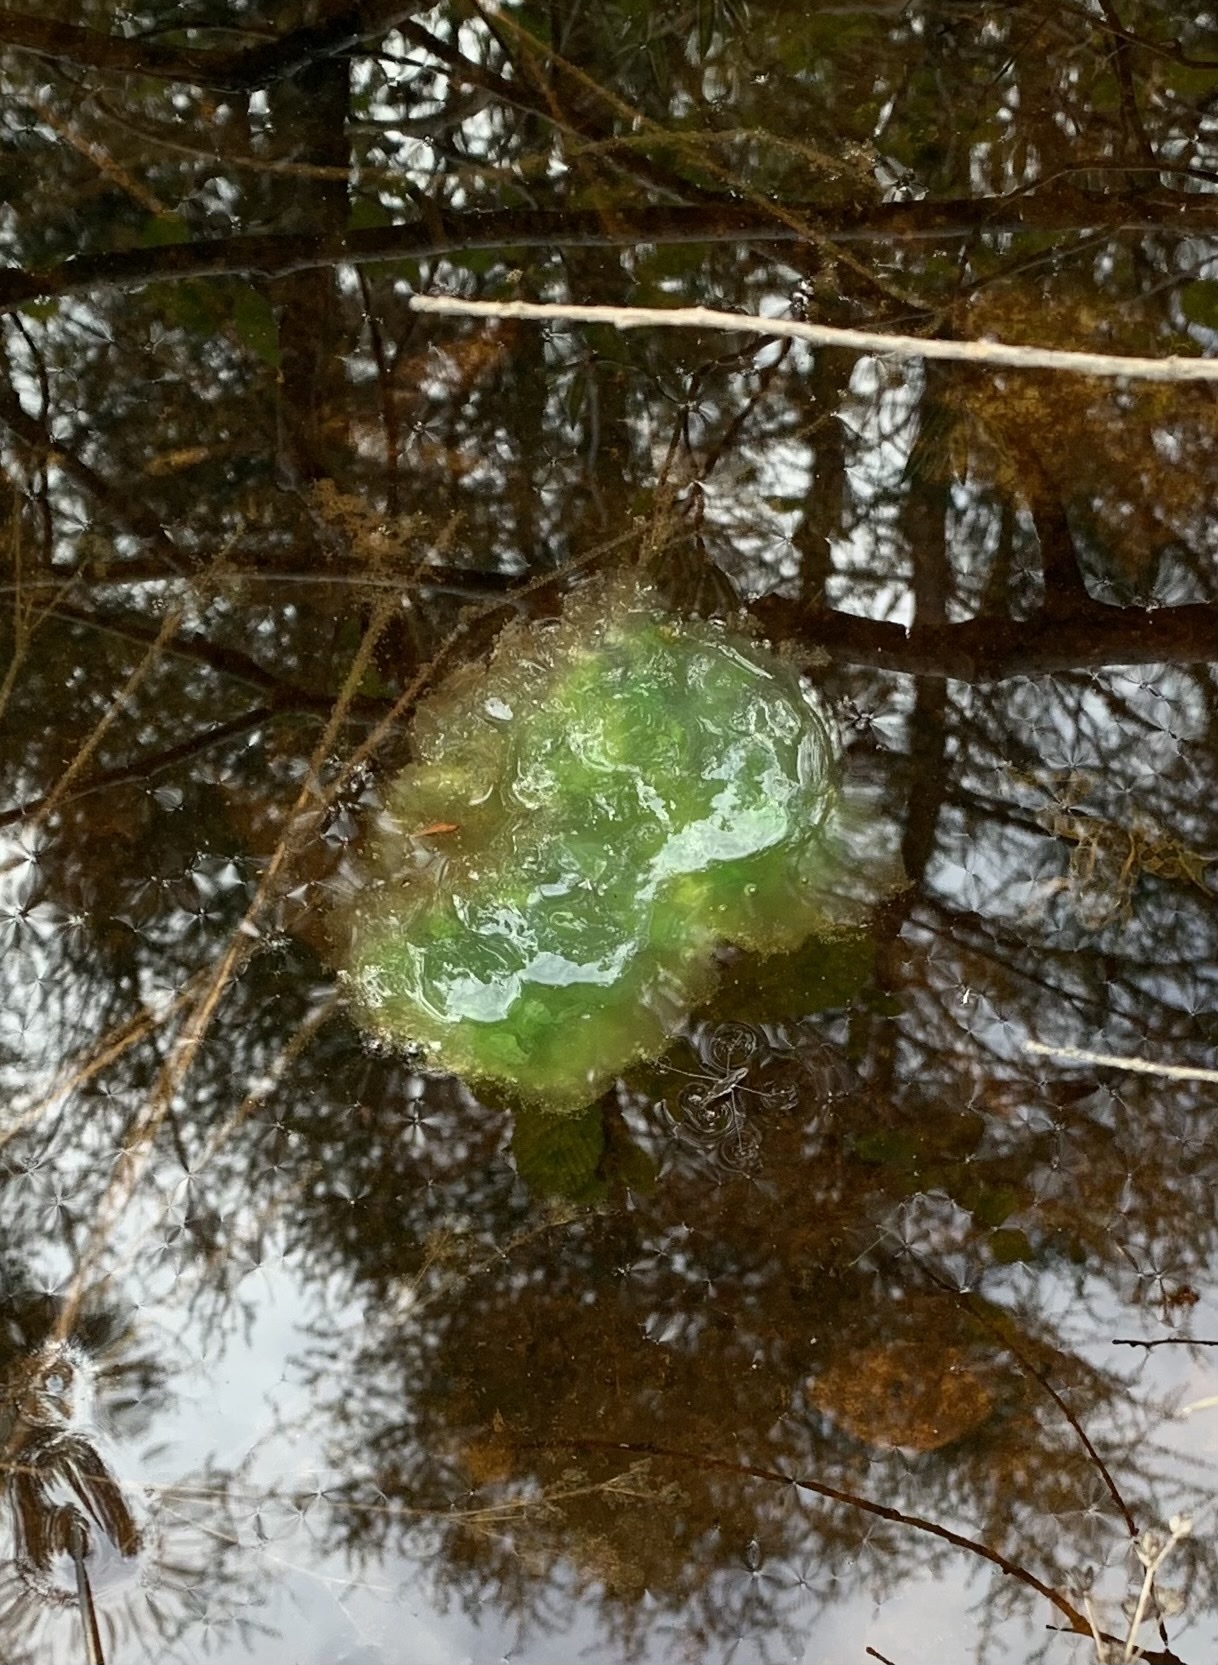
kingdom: Animalia
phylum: Chordata
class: Amphibia
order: Caudata
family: Ambystomatidae
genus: Ambystoma
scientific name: Ambystoma maculatum
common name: Spotted salamander
